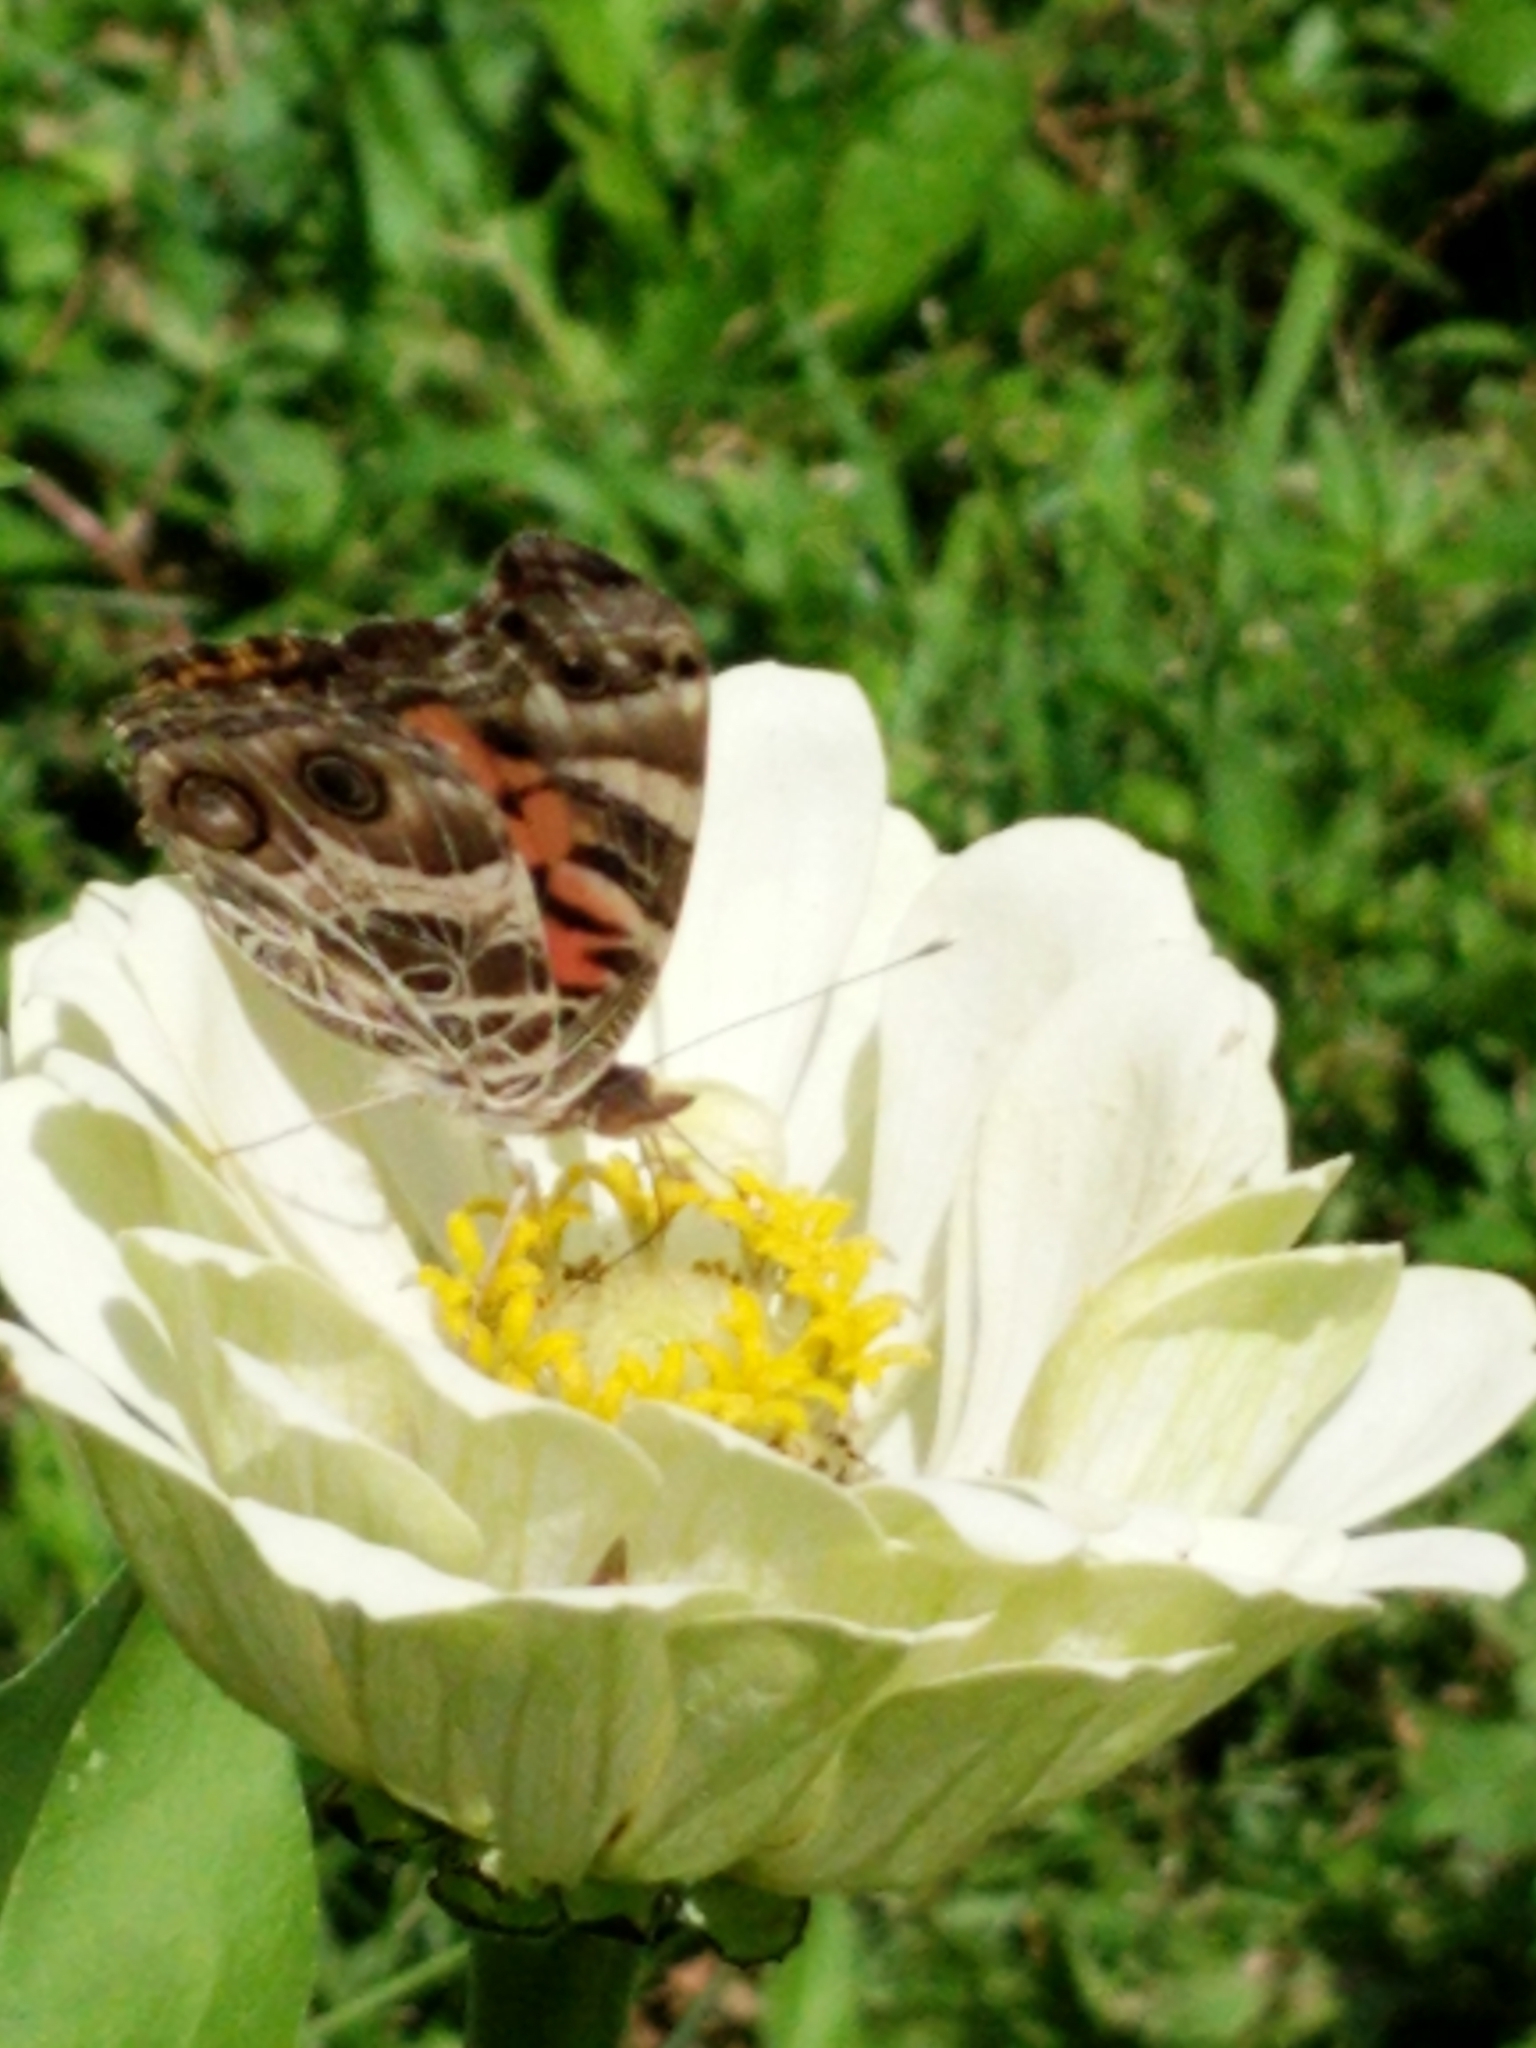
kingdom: Animalia
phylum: Arthropoda
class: Insecta
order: Lepidoptera
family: Nymphalidae
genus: Vanessa
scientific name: Vanessa virginiensis
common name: American lady
